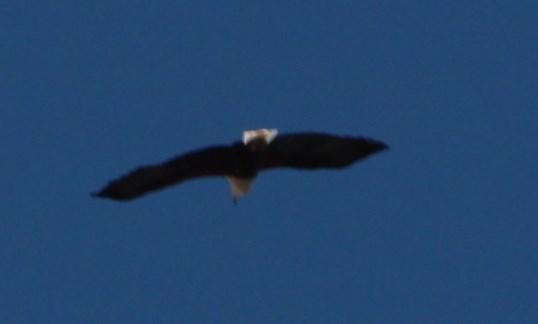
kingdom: Animalia
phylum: Chordata
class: Aves
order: Accipitriformes
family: Accipitridae
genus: Haliaeetus
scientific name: Haliaeetus vocifer
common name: African fish eagle
